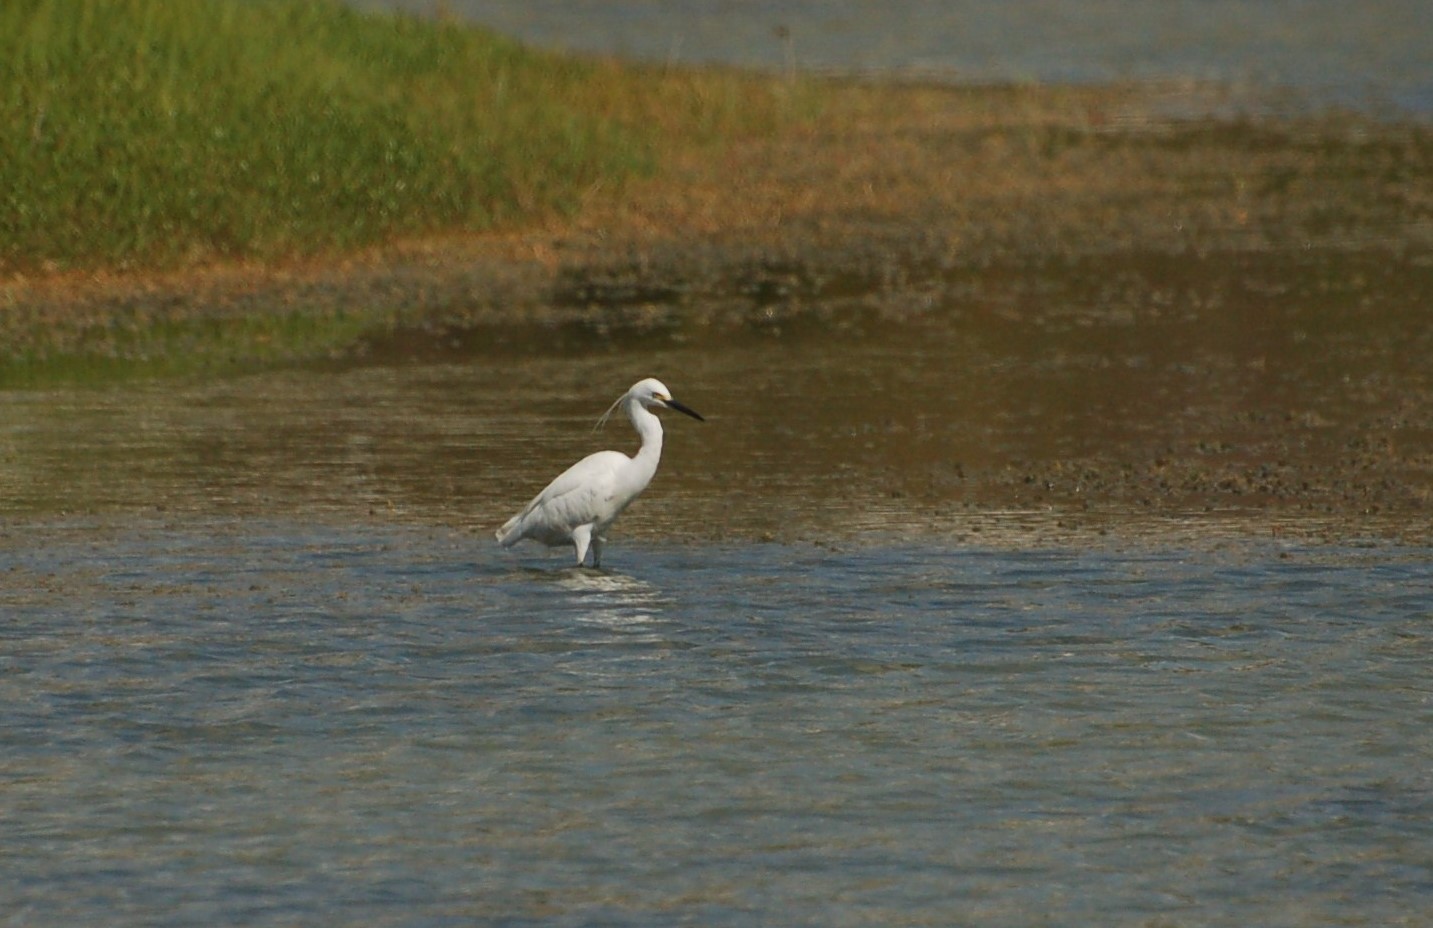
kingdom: Animalia
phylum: Chordata
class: Aves
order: Pelecaniformes
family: Ardeidae
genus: Egretta
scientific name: Egretta garzetta
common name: Little egret
